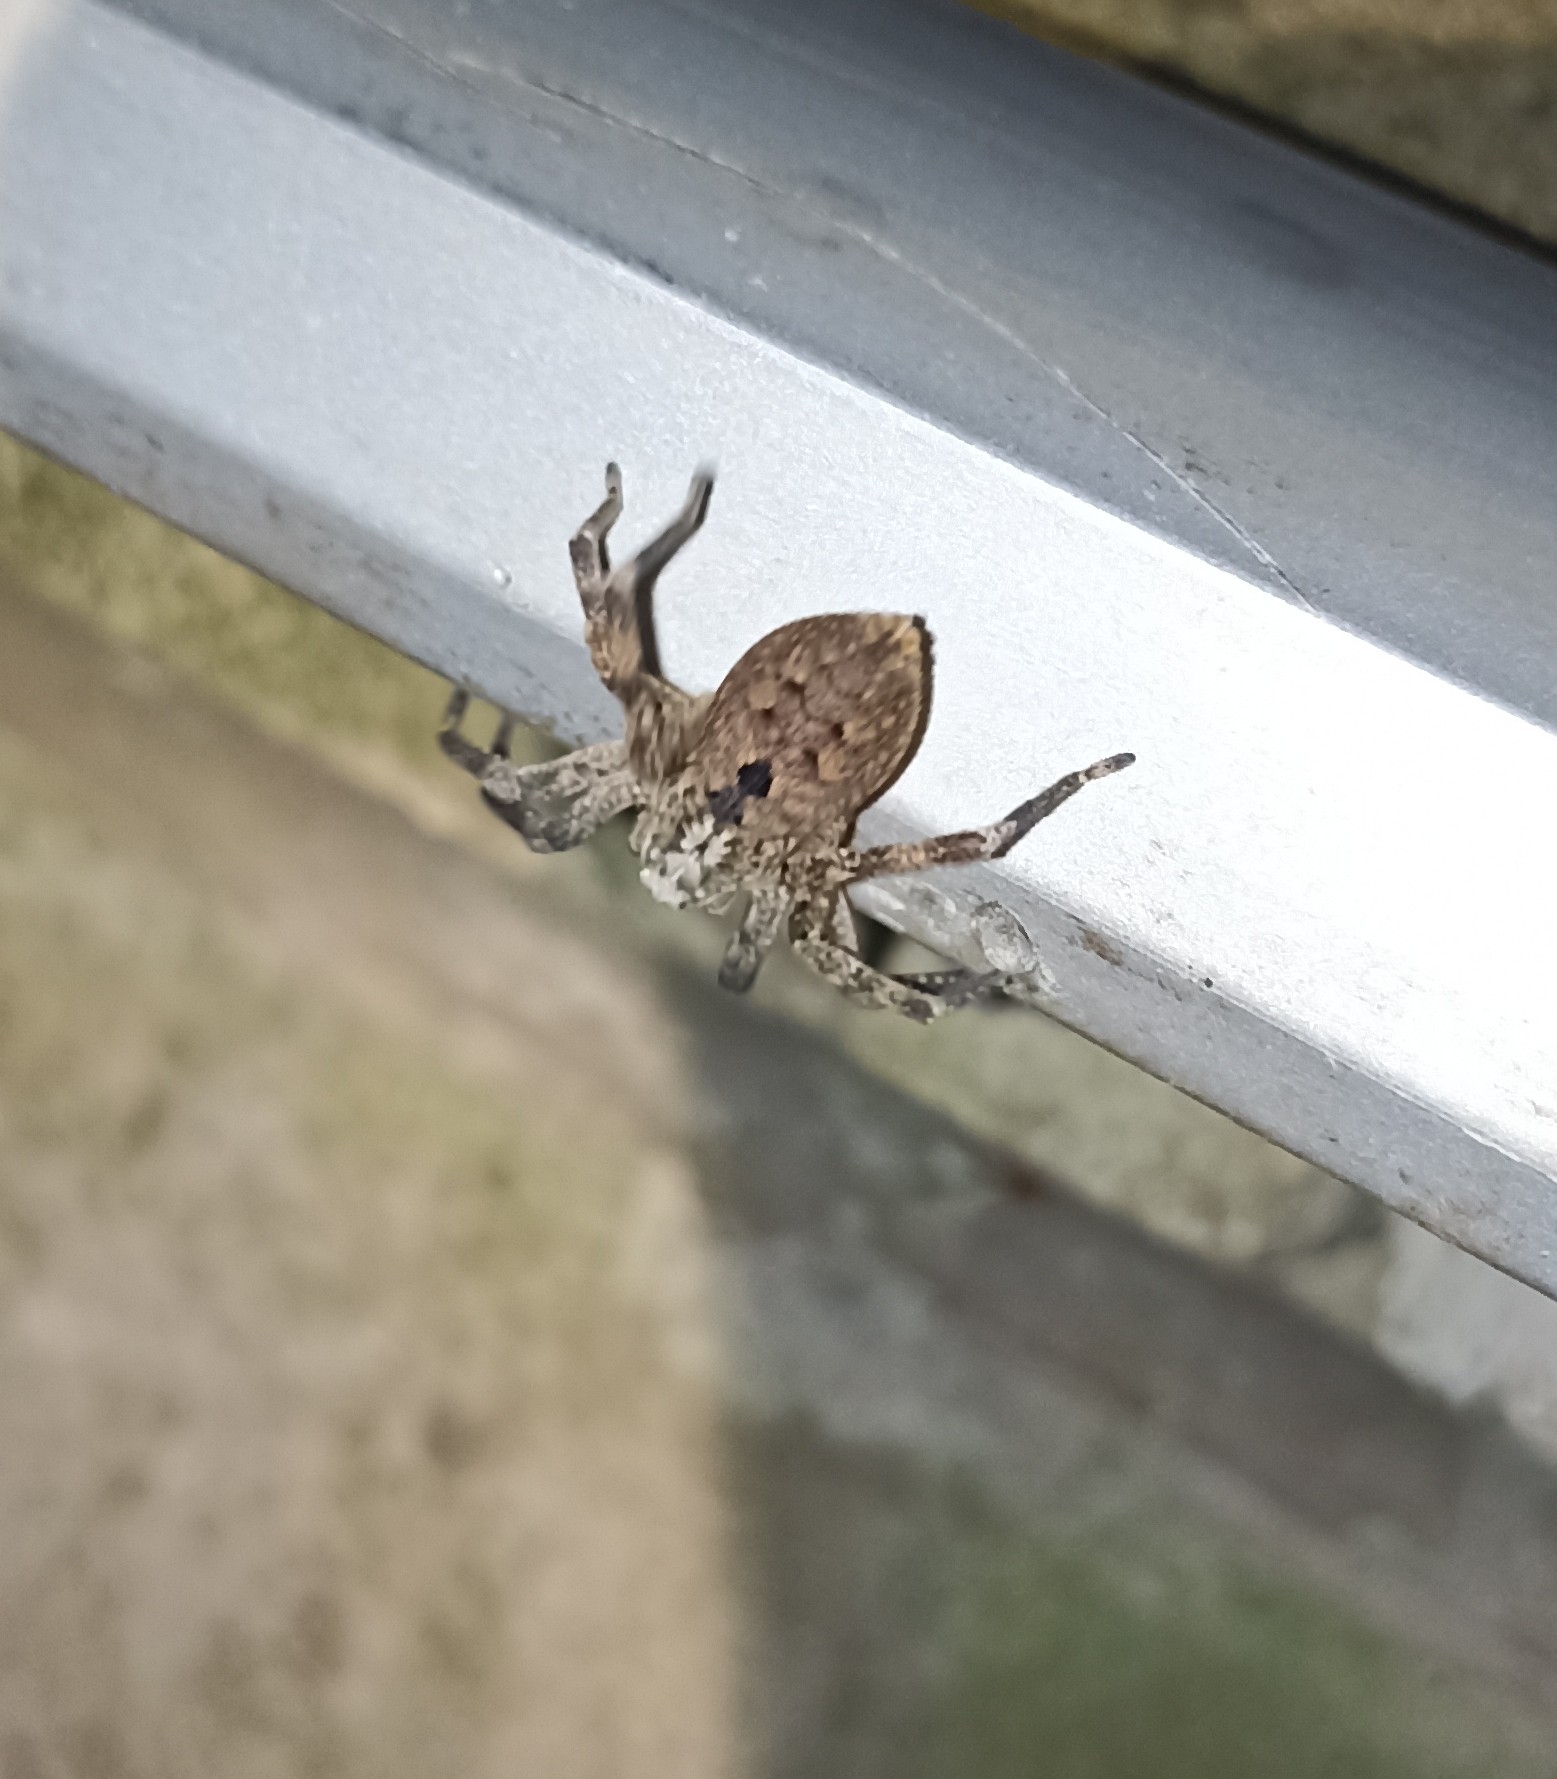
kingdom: Animalia
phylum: Arthropoda
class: Arachnida
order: Araneae
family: Zoropsidae
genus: Zoropsis
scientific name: Zoropsis spinimana
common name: Zoropsid spider
